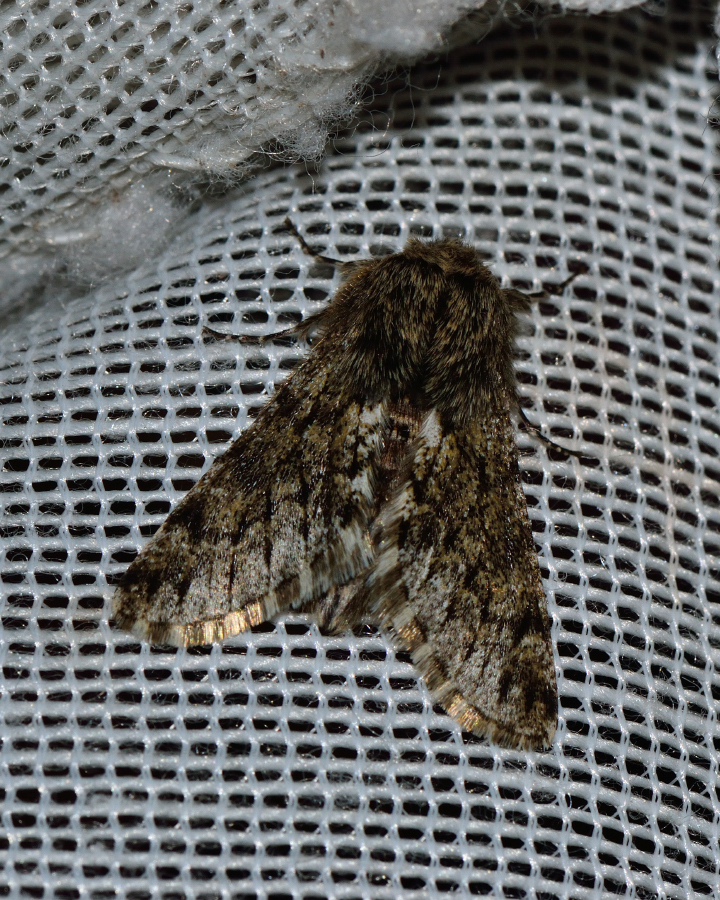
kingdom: Animalia
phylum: Arthropoda
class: Insecta
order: Lepidoptera
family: Geometridae
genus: Apocheima
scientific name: Apocheima hispidaria
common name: Small brindled beauty
